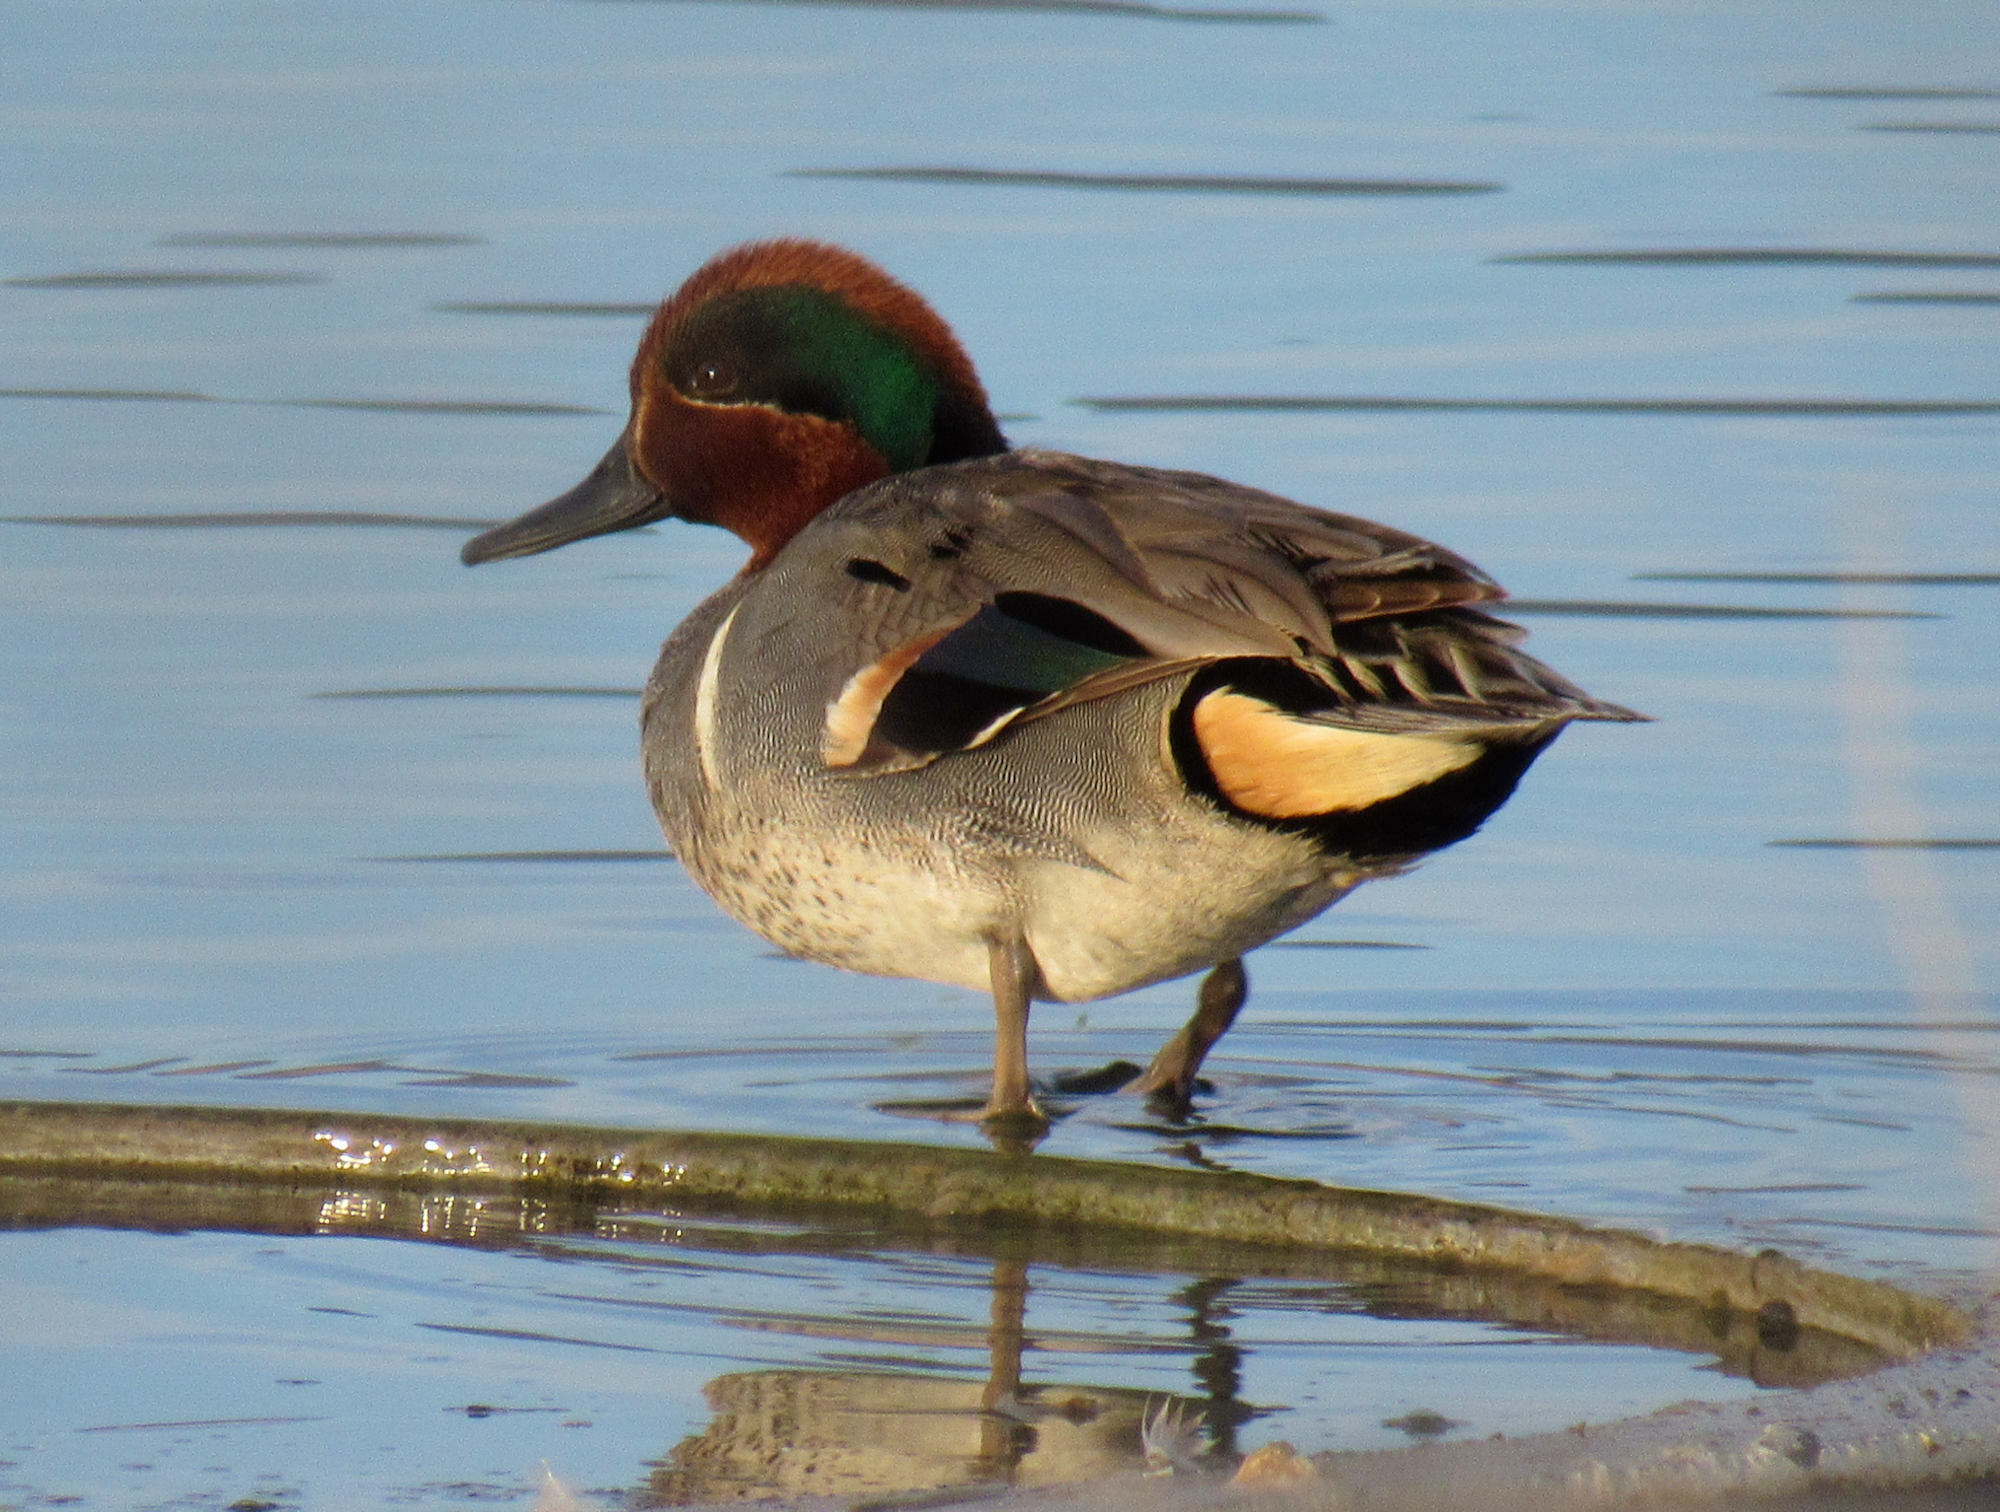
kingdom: Animalia
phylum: Chordata
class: Aves
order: Anseriformes
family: Anatidae
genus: Anas
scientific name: Anas crecca
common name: Eurasian teal
